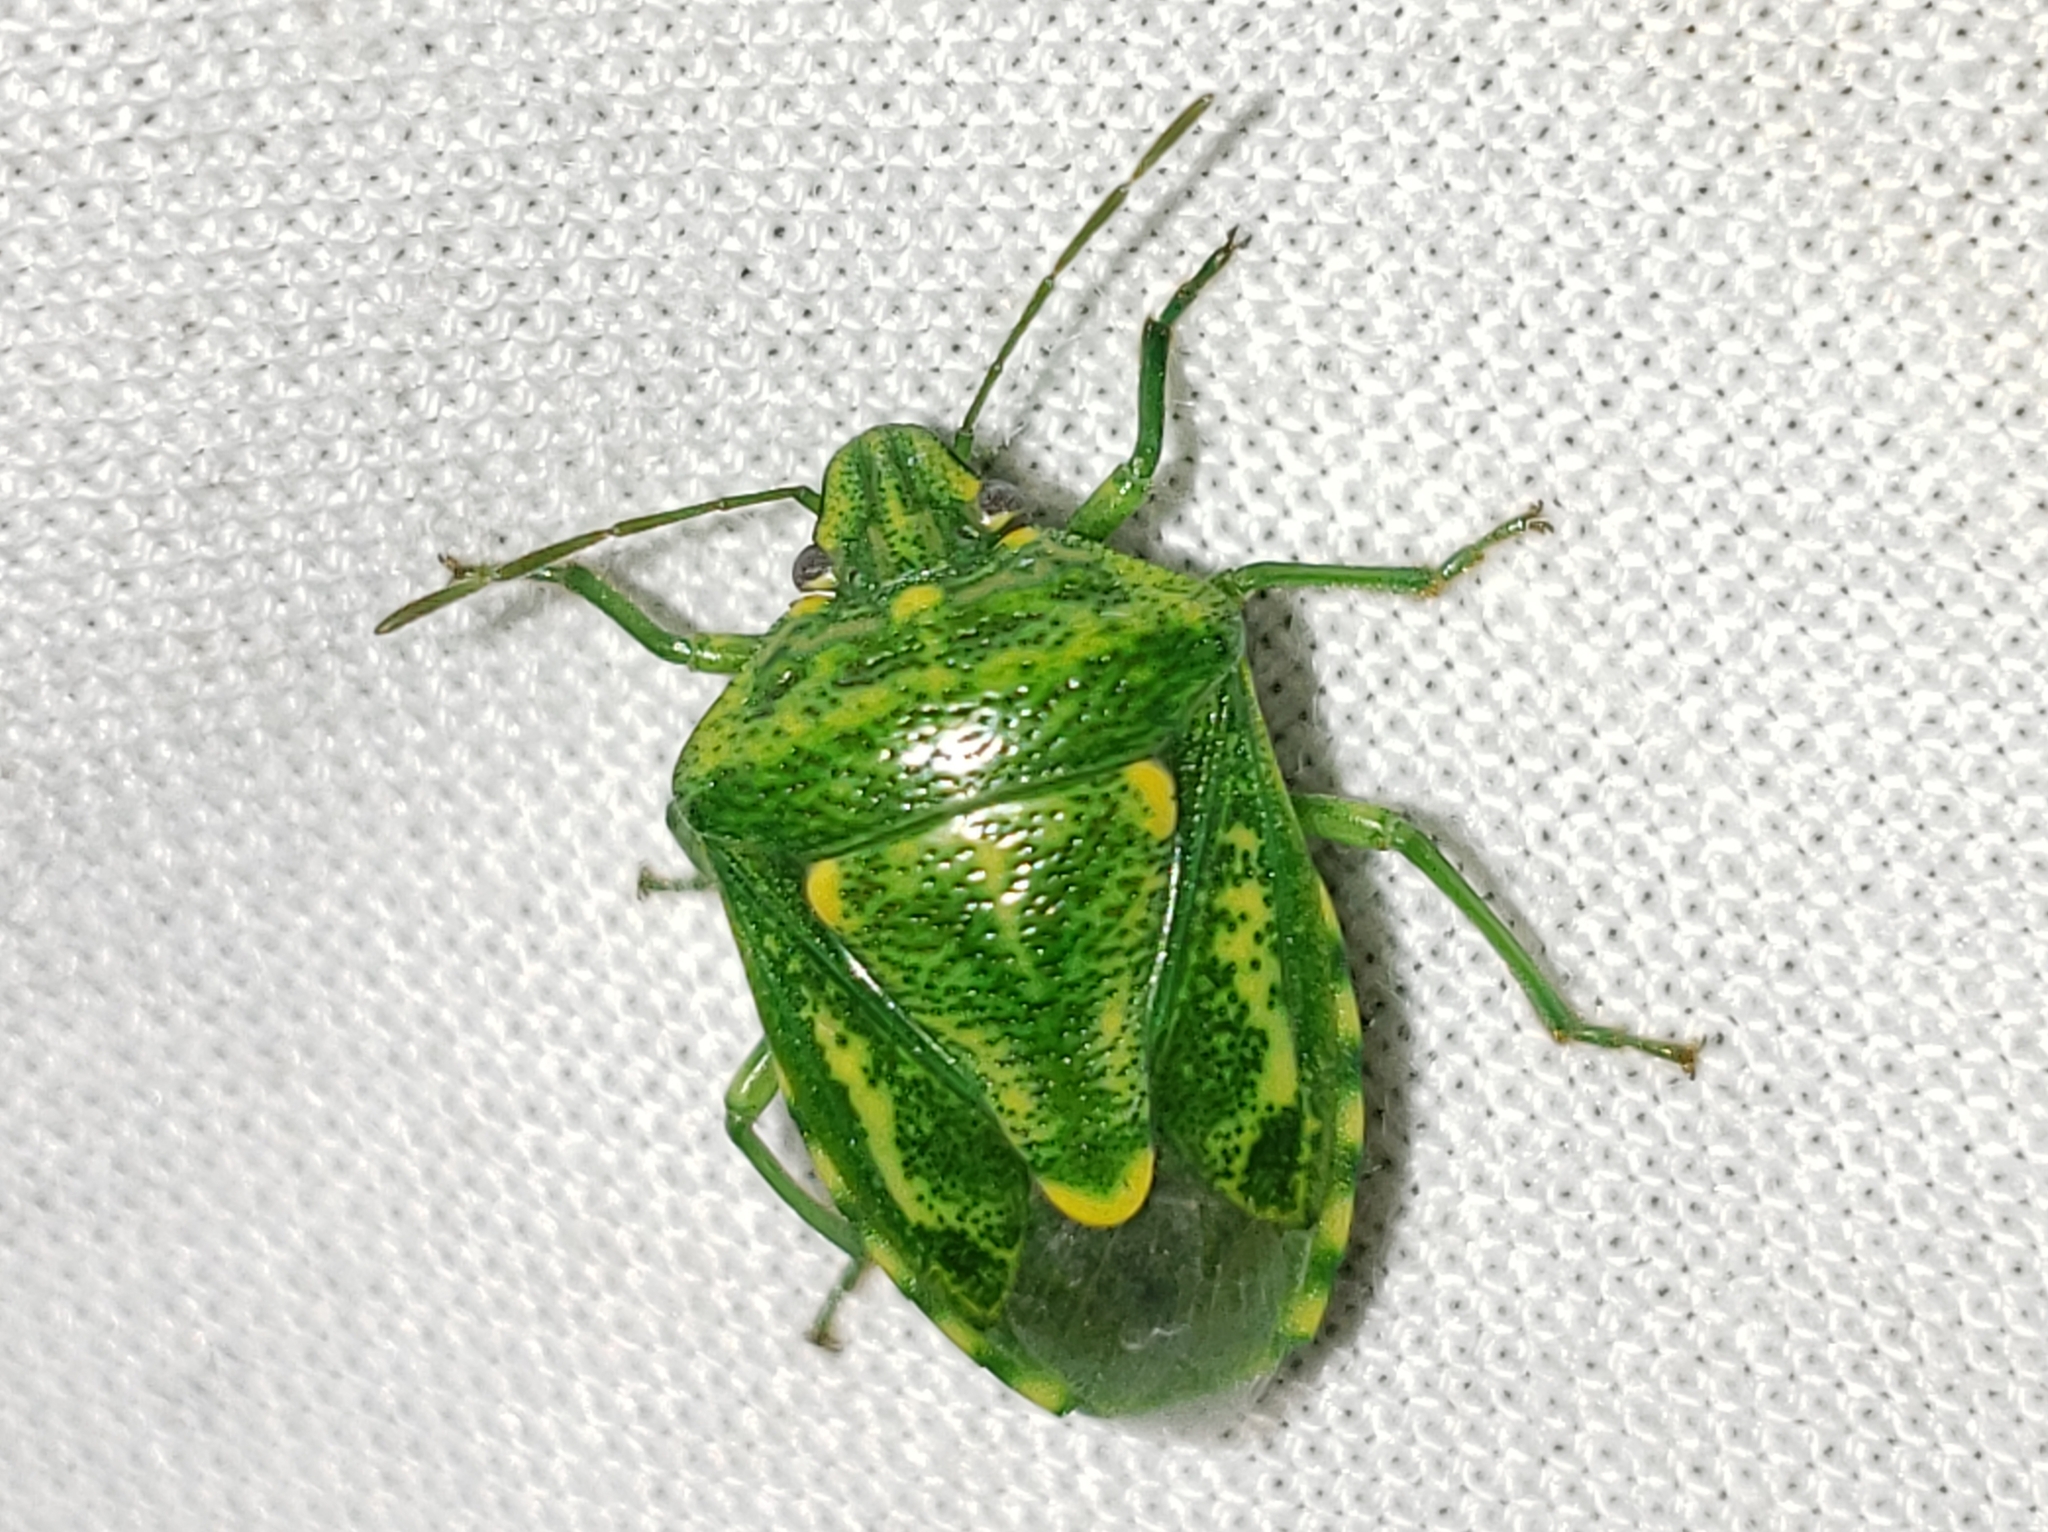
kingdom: Animalia
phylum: Arthropoda
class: Insecta
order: Hemiptera
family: Pentatomidae
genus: Banasa
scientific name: Banasa euchlora
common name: Cedar berry bug
